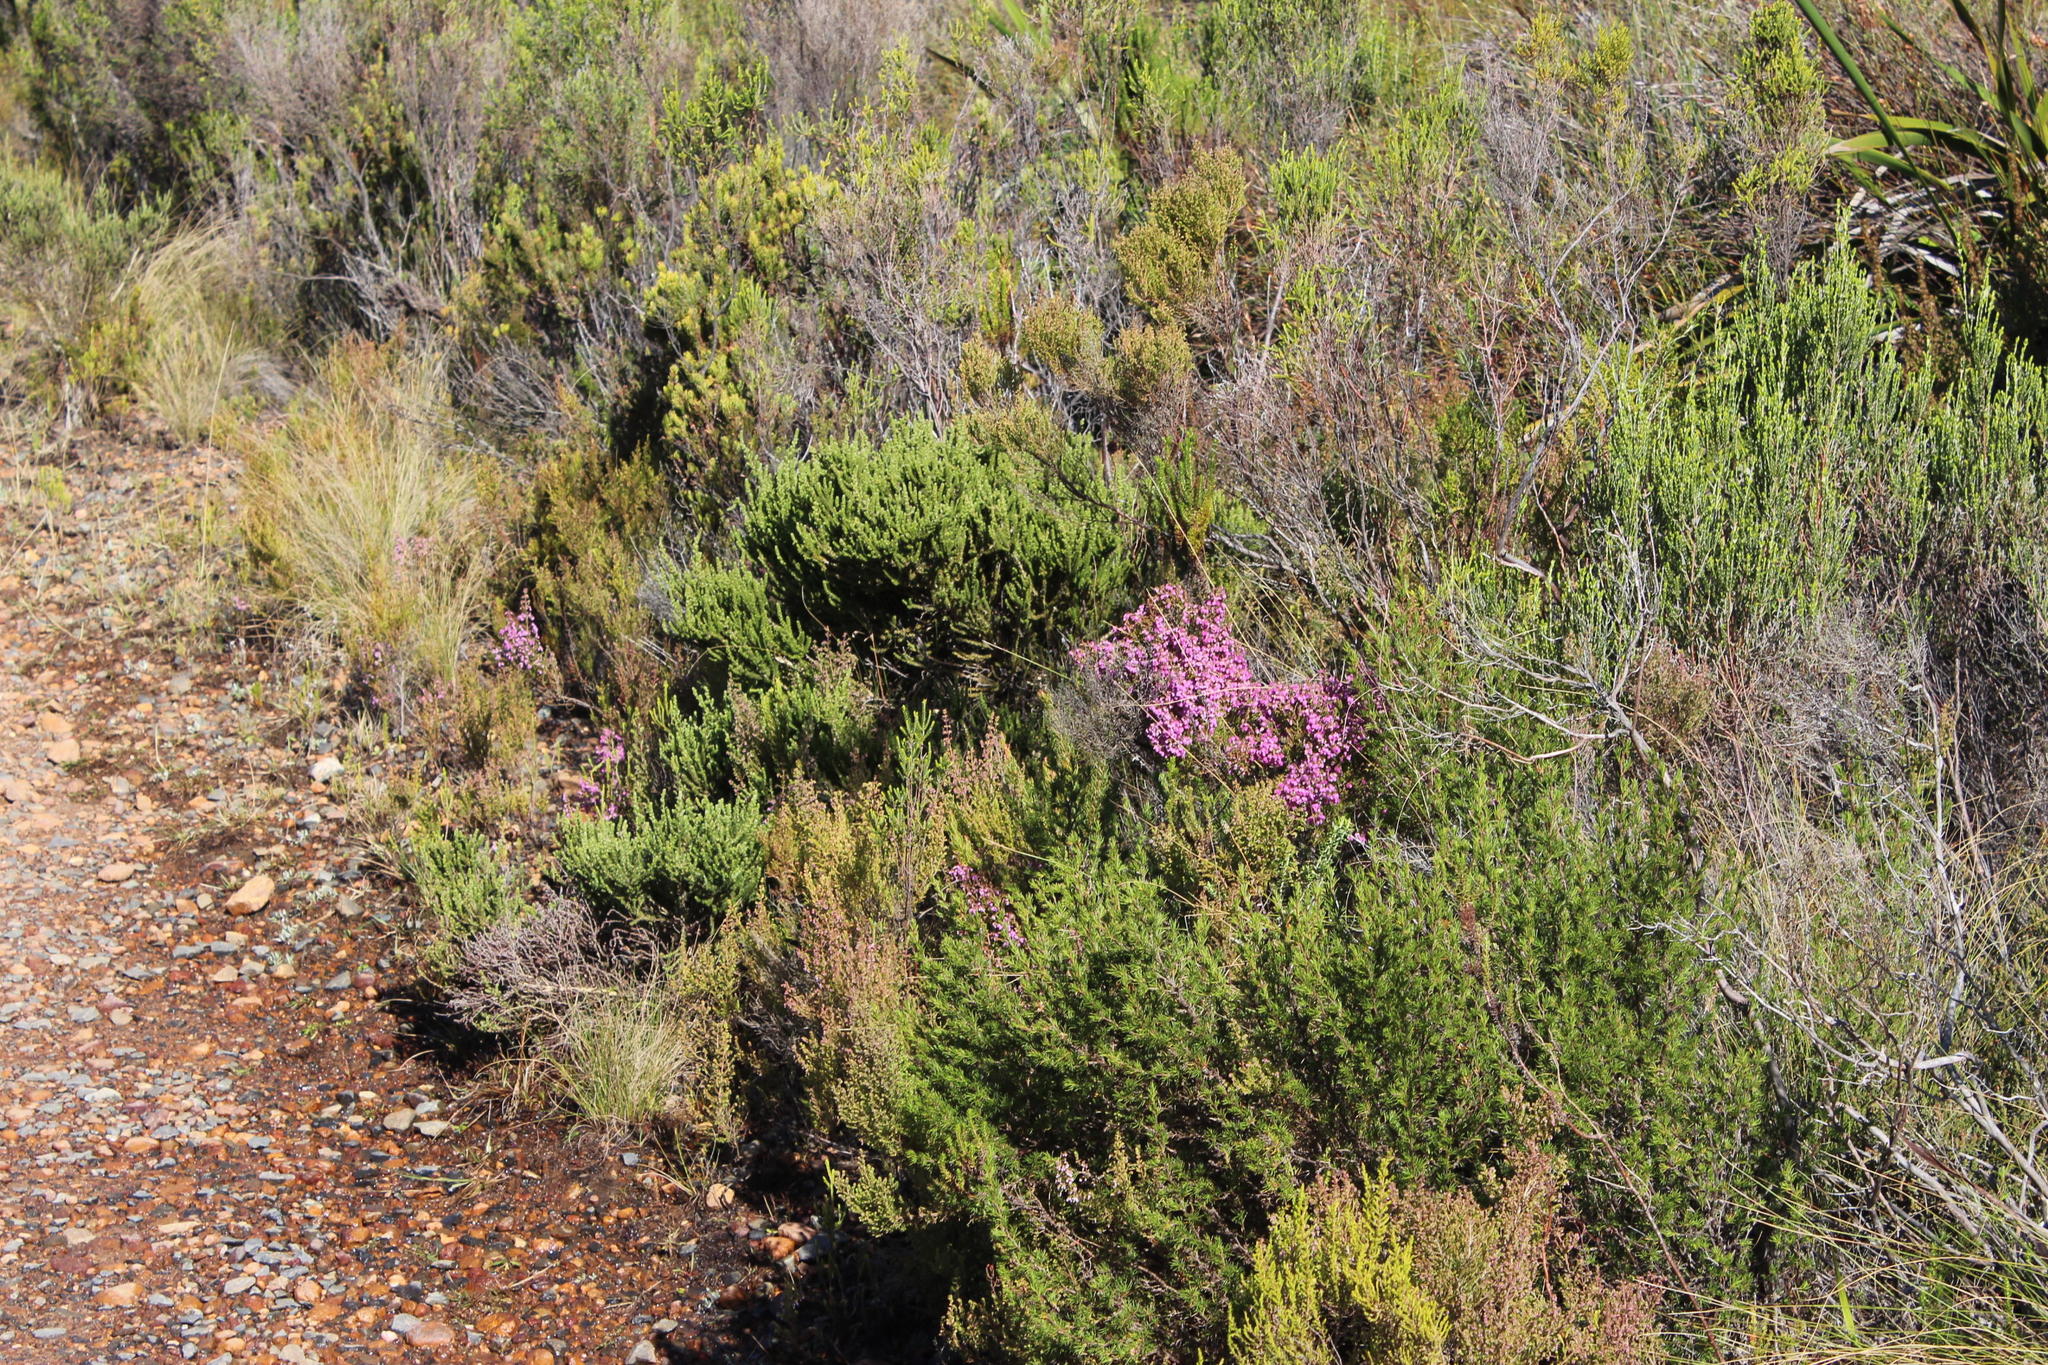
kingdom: Plantae
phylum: Tracheophyta
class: Magnoliopsida
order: Ericales
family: Ericaceae
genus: Erica
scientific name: Erica hirtiflora
